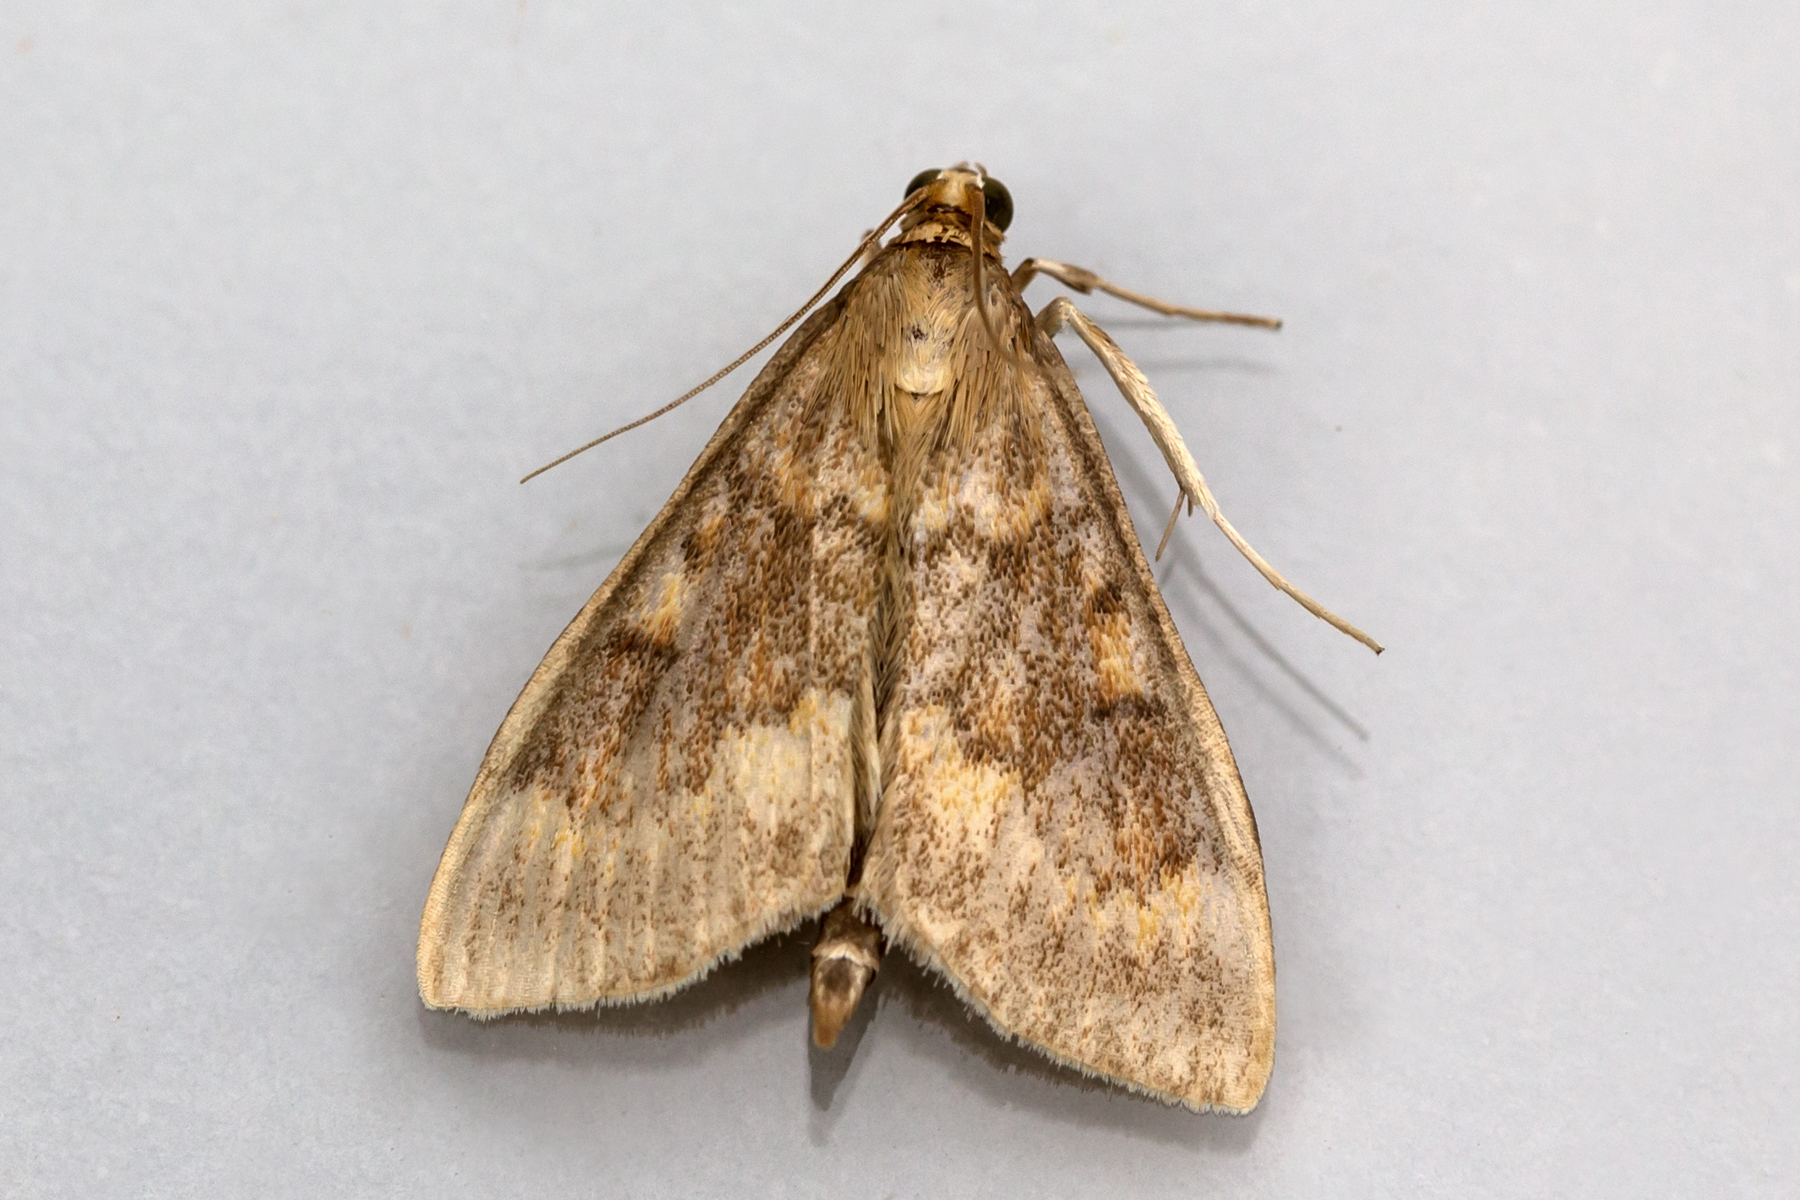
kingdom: Animalia
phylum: Arthropoda
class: Insecta
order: Lepidoptera
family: Crambidae
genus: Ostrinia
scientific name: Ostrinia nubilalis
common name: European corn borer
